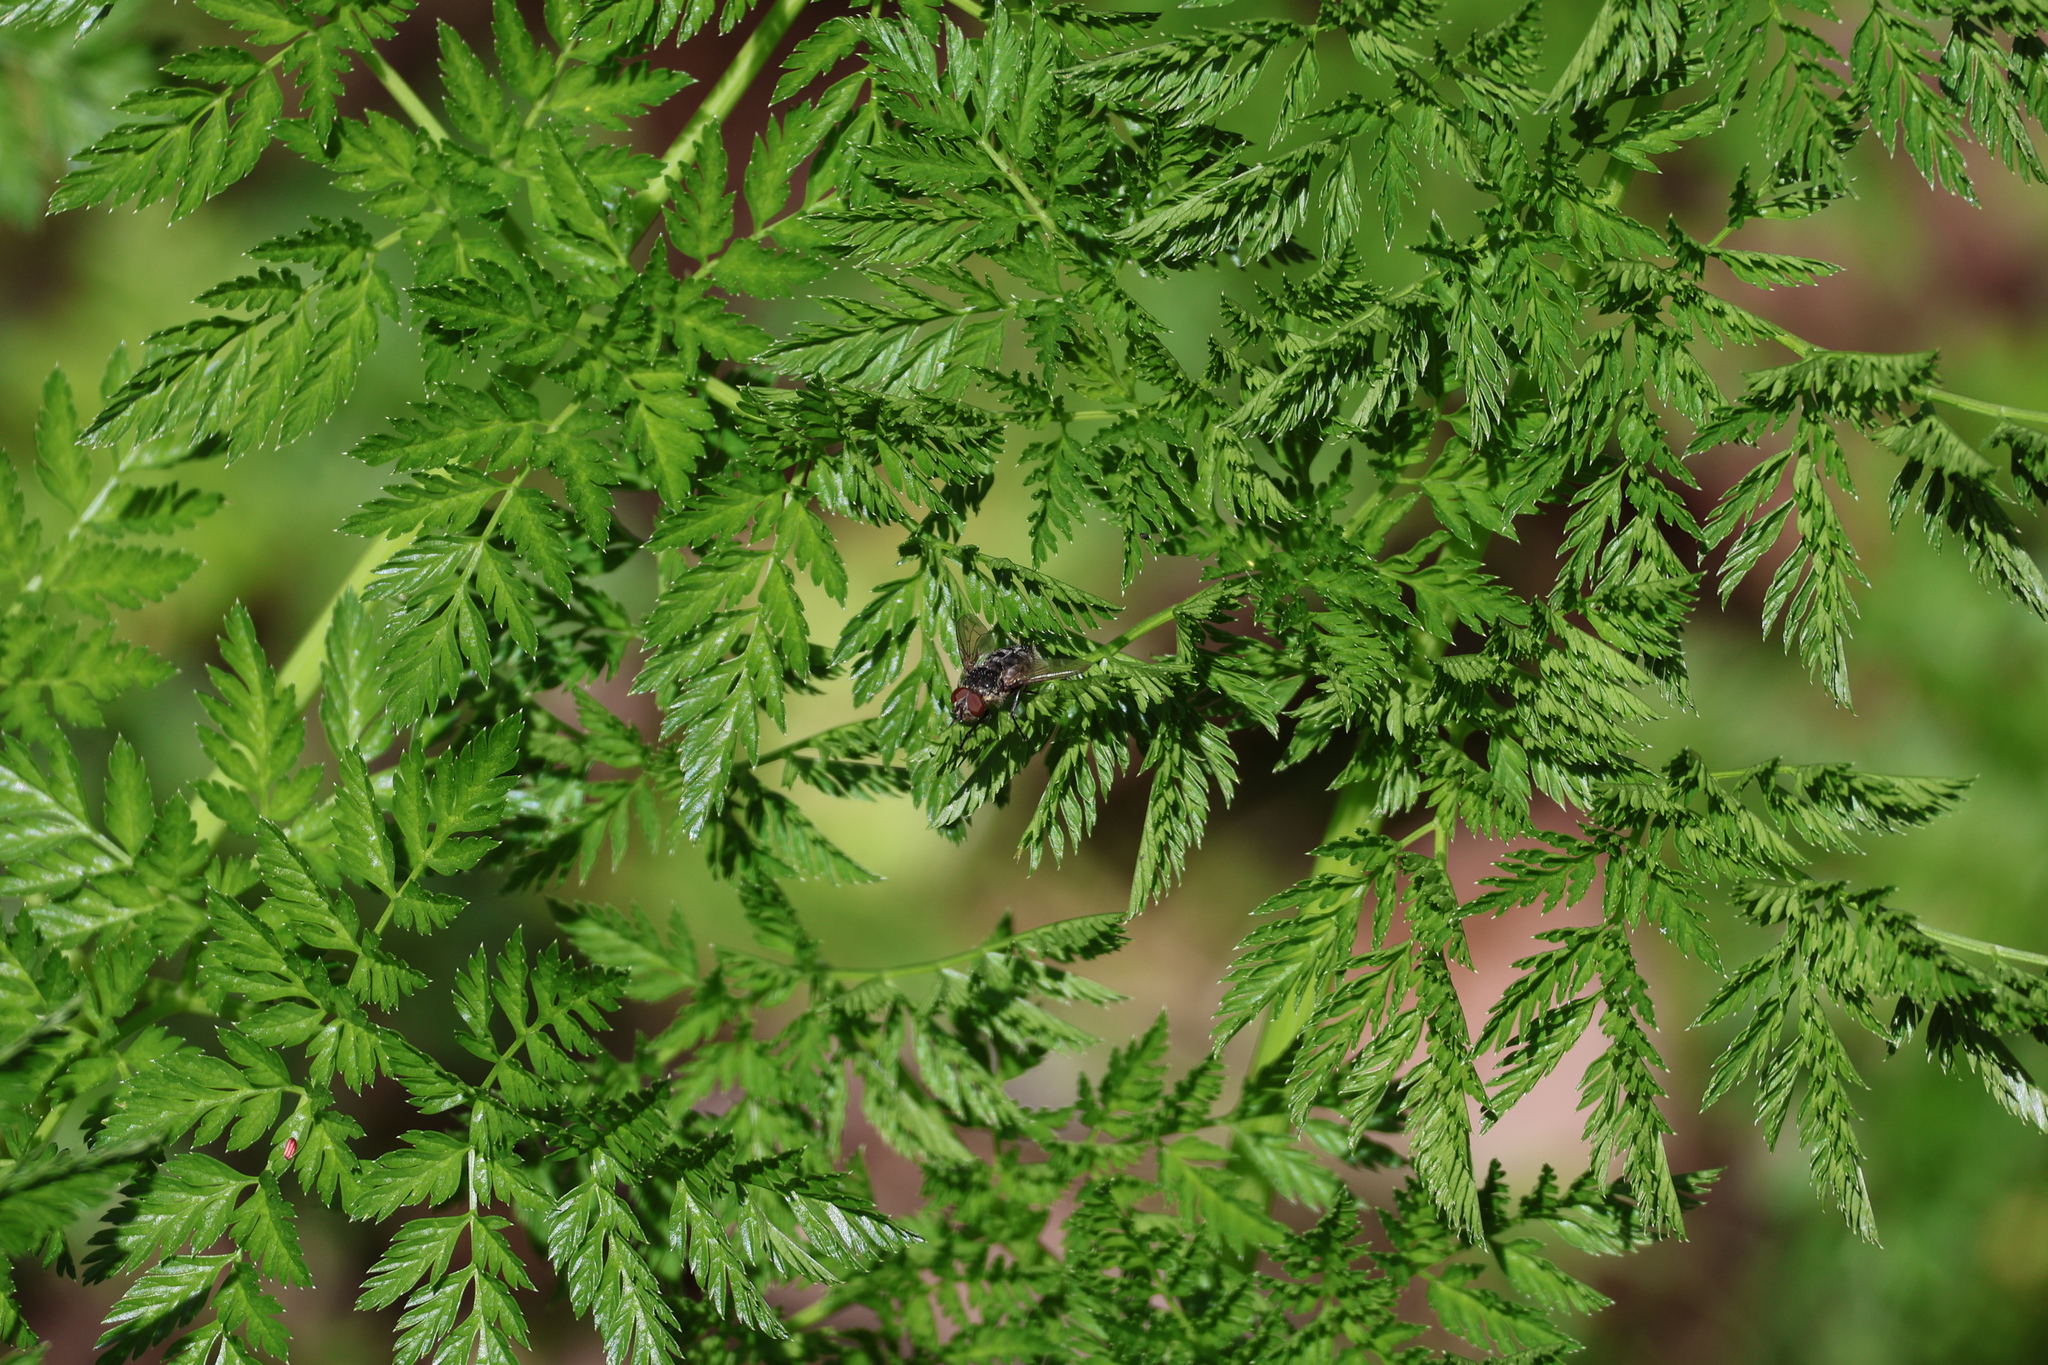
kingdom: Plantae
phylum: Tracheophyta
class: Magnoliopsida
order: Apiales
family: Apiaceae
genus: Conium
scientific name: Conium maculatum
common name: Hemlock
